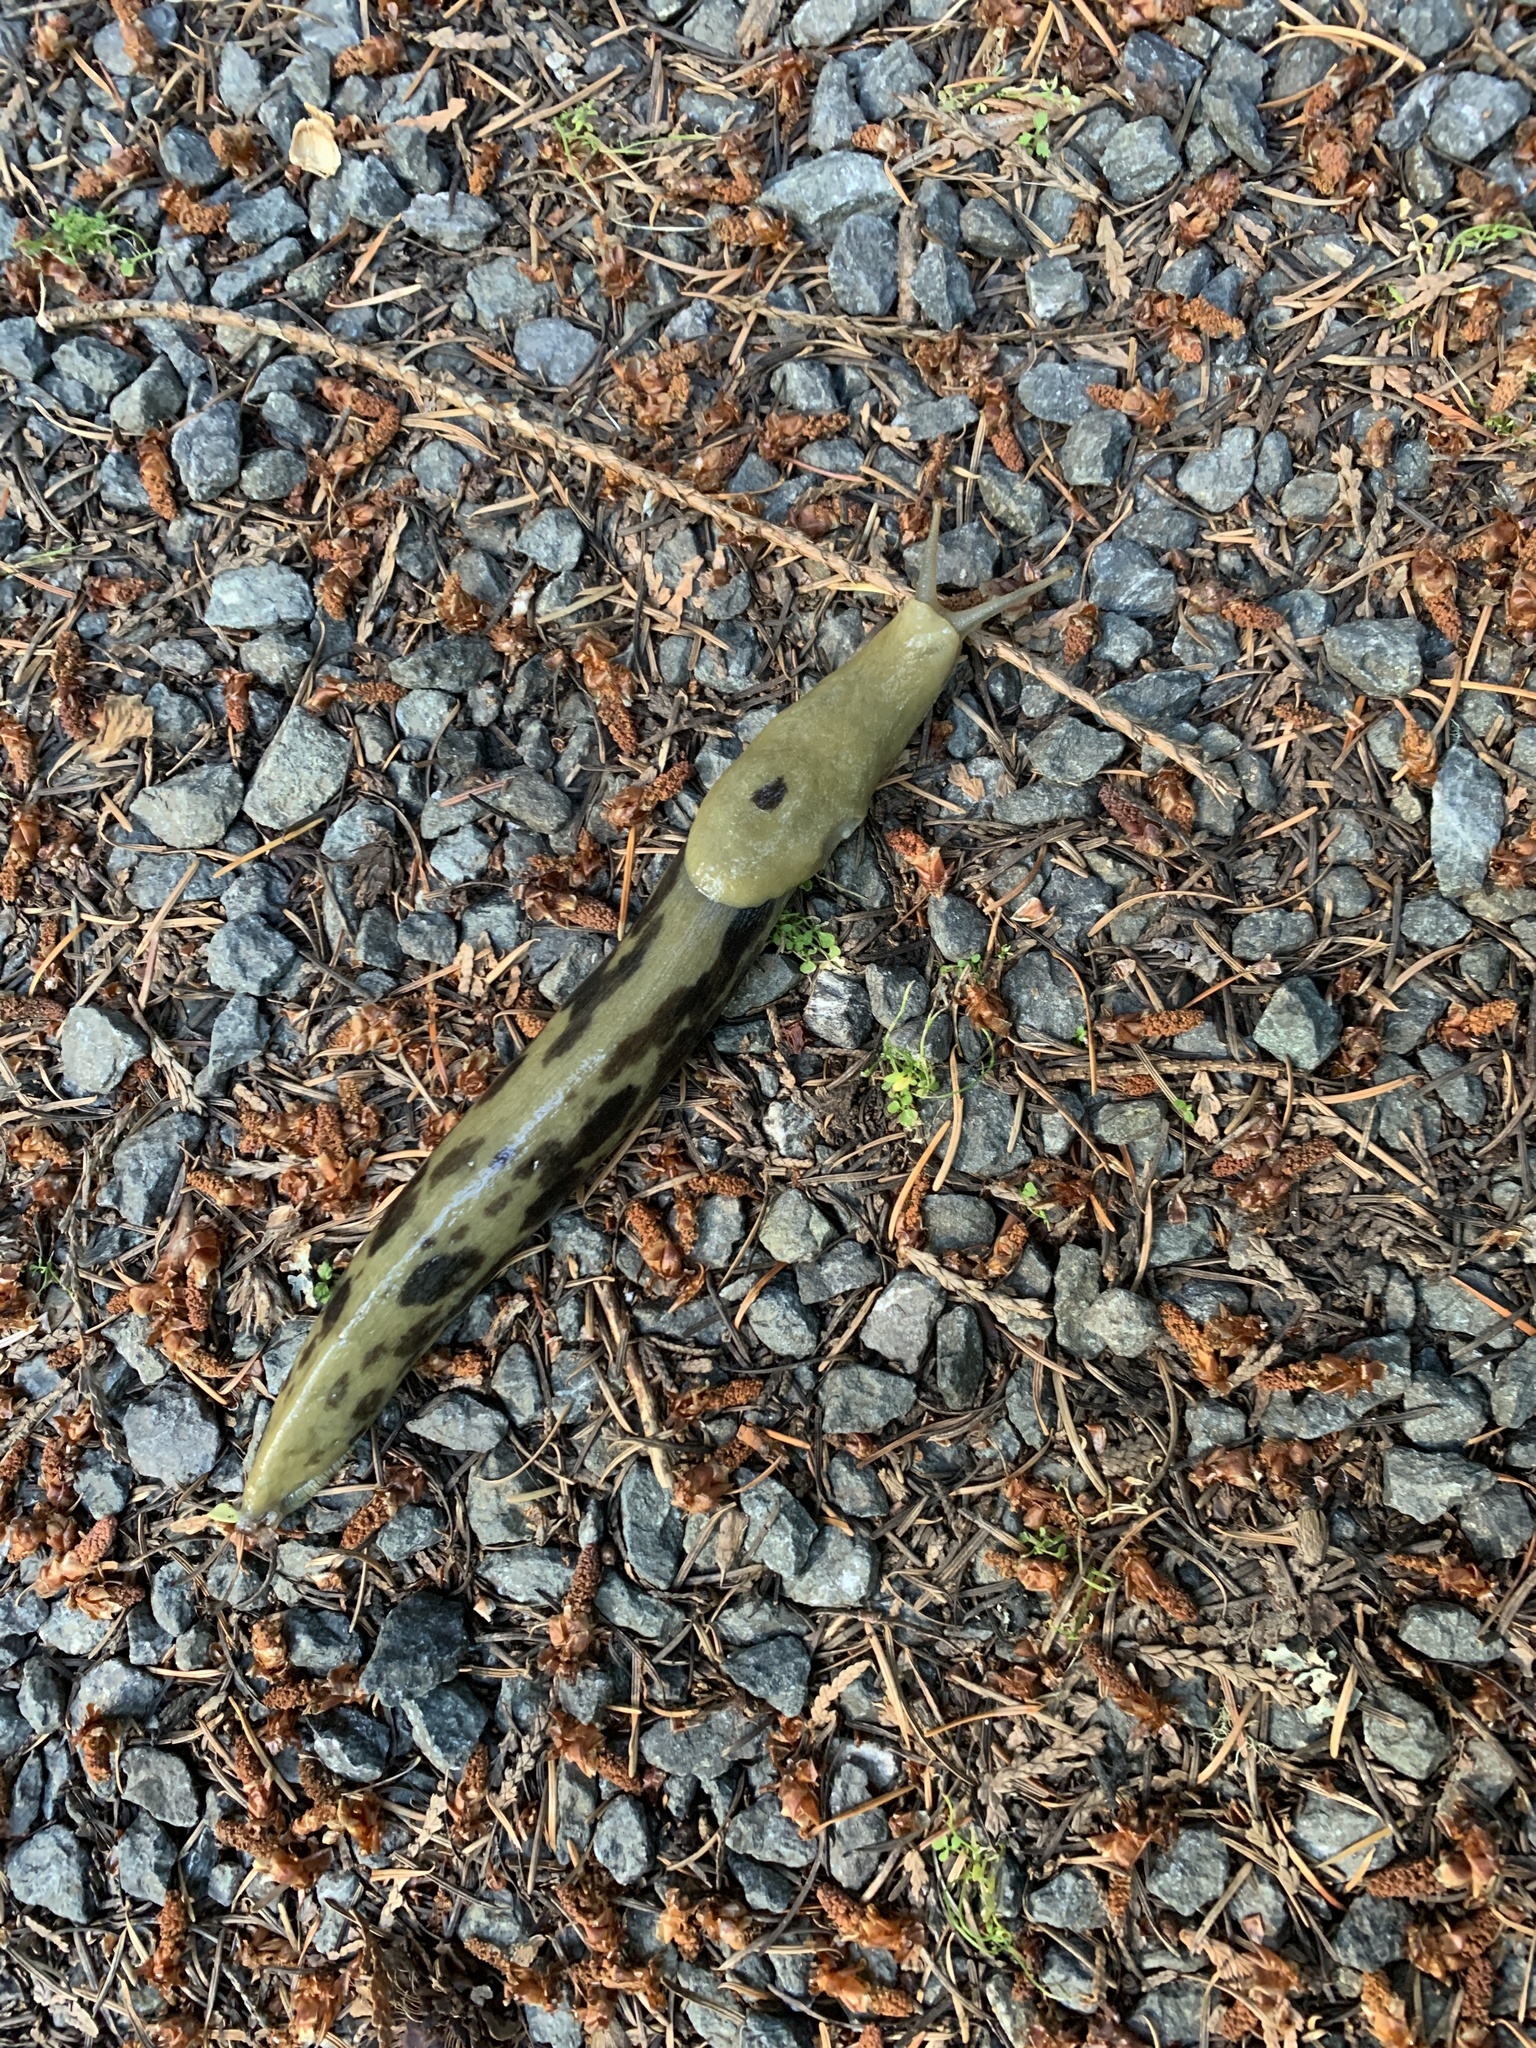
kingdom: Animalia
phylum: Mollusca
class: Gastropoda
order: Stylommatophora
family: Ariolimacidae
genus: Ariolimax
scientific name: Ariolimax columbianus
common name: Pacific banana slug
